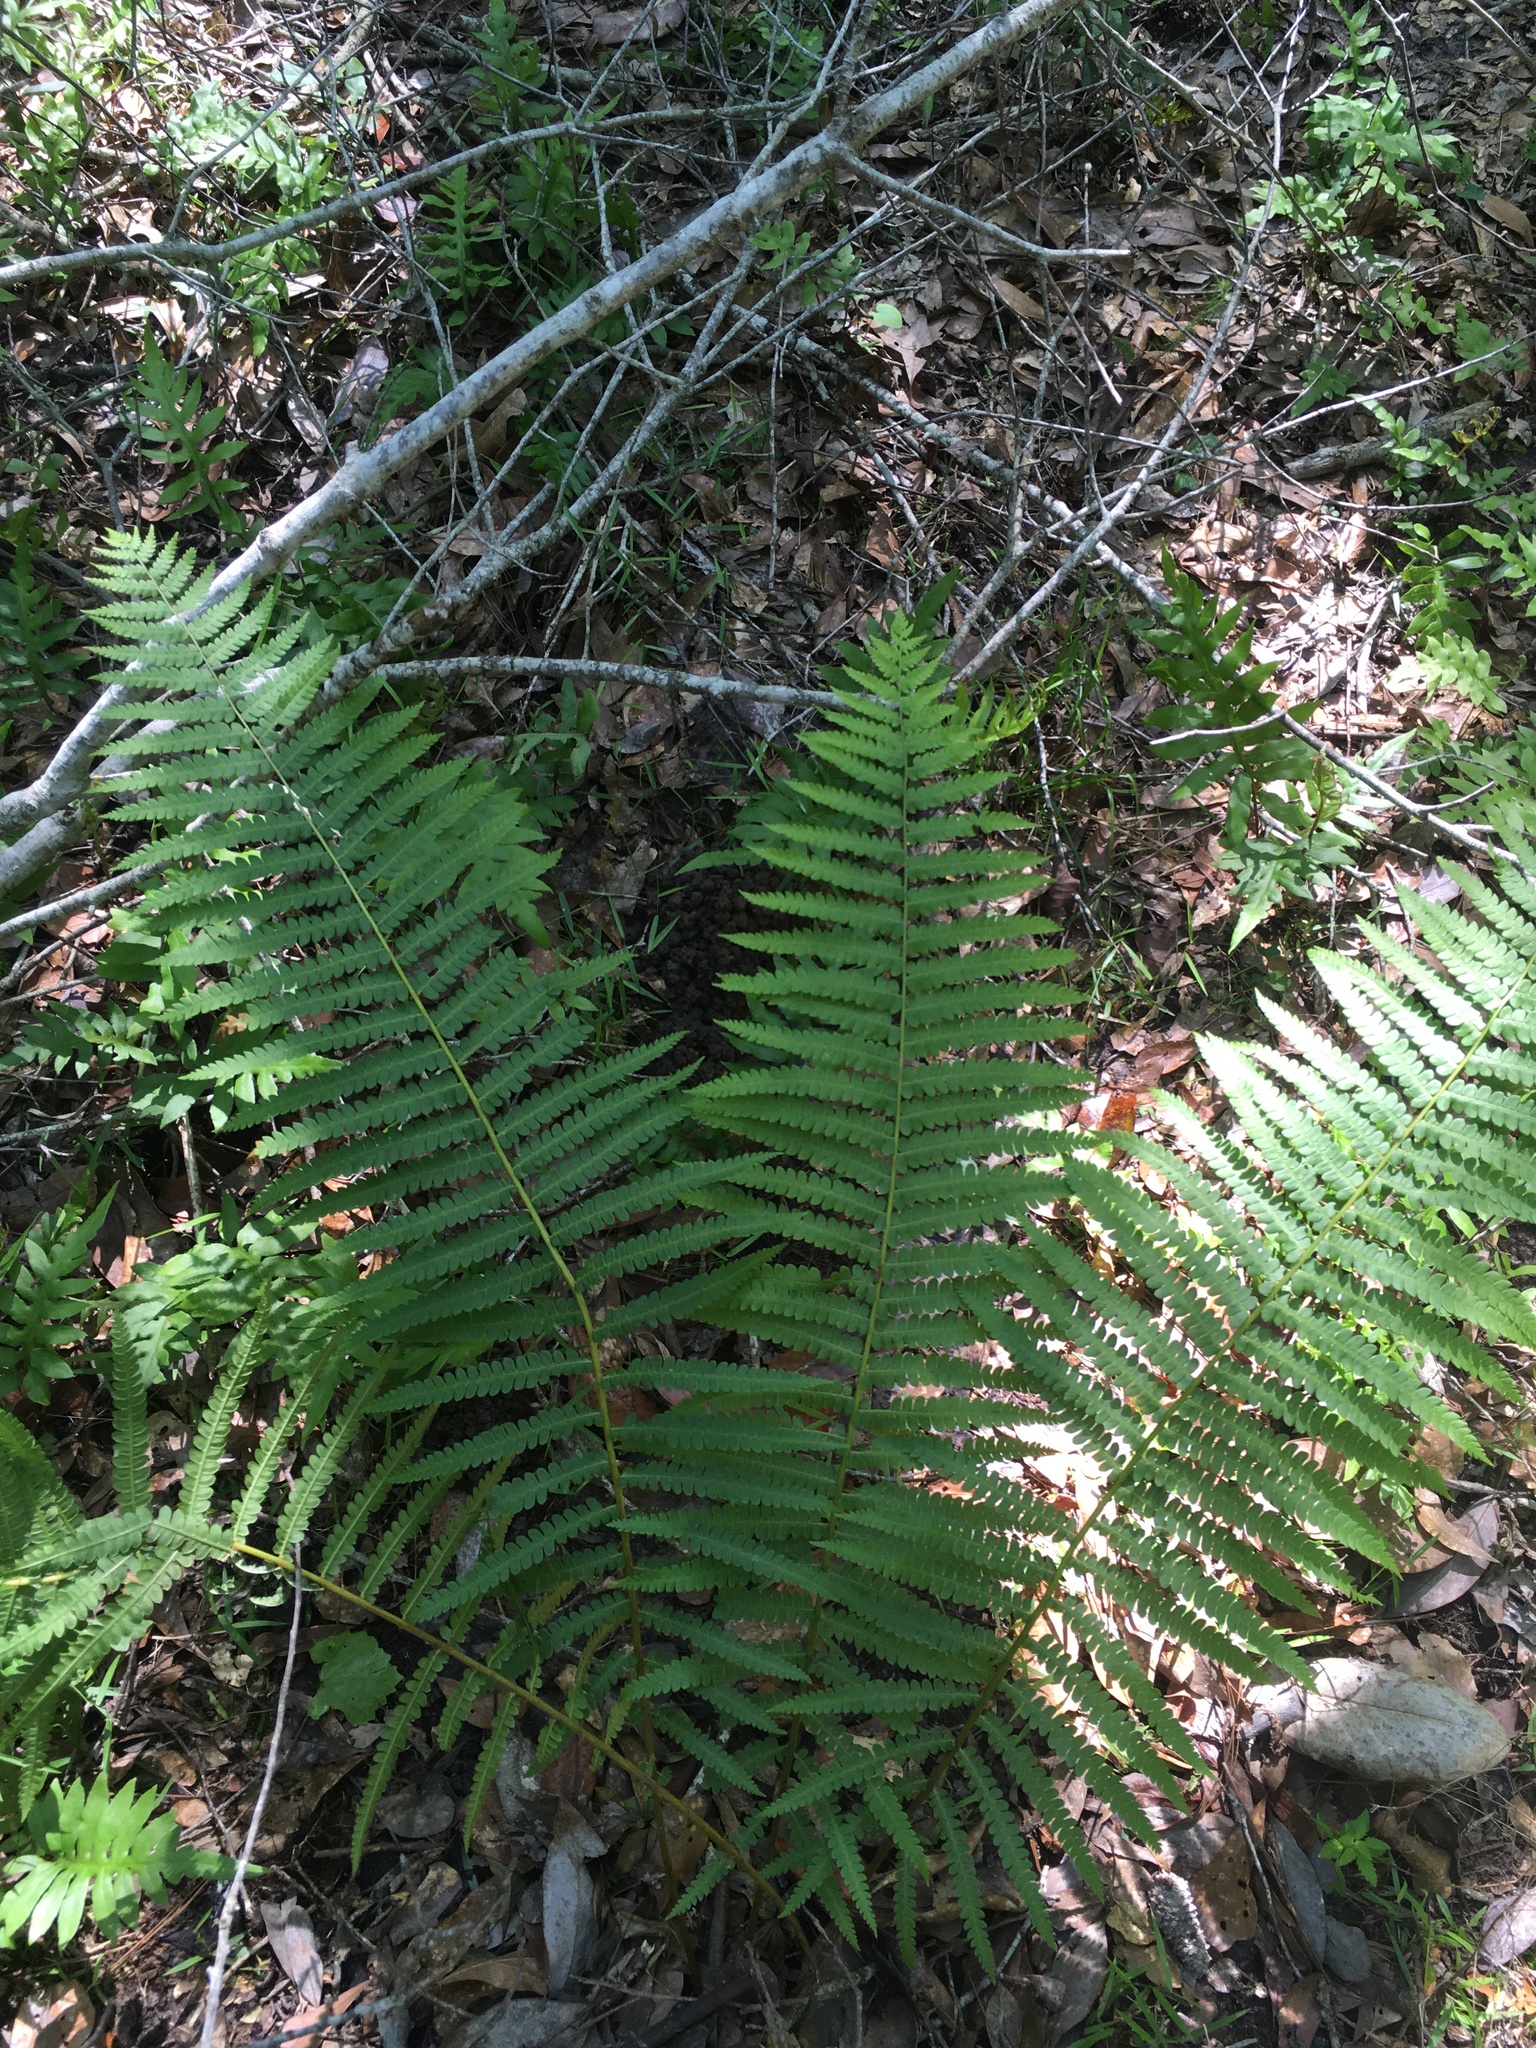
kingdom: Plantae
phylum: Tracheophyta
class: Polypodiopsida
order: Osmundales
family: Osmundaceae
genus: Osmundastrum
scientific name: Osmundastrum cinnamomeum
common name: Cinnamon fern
